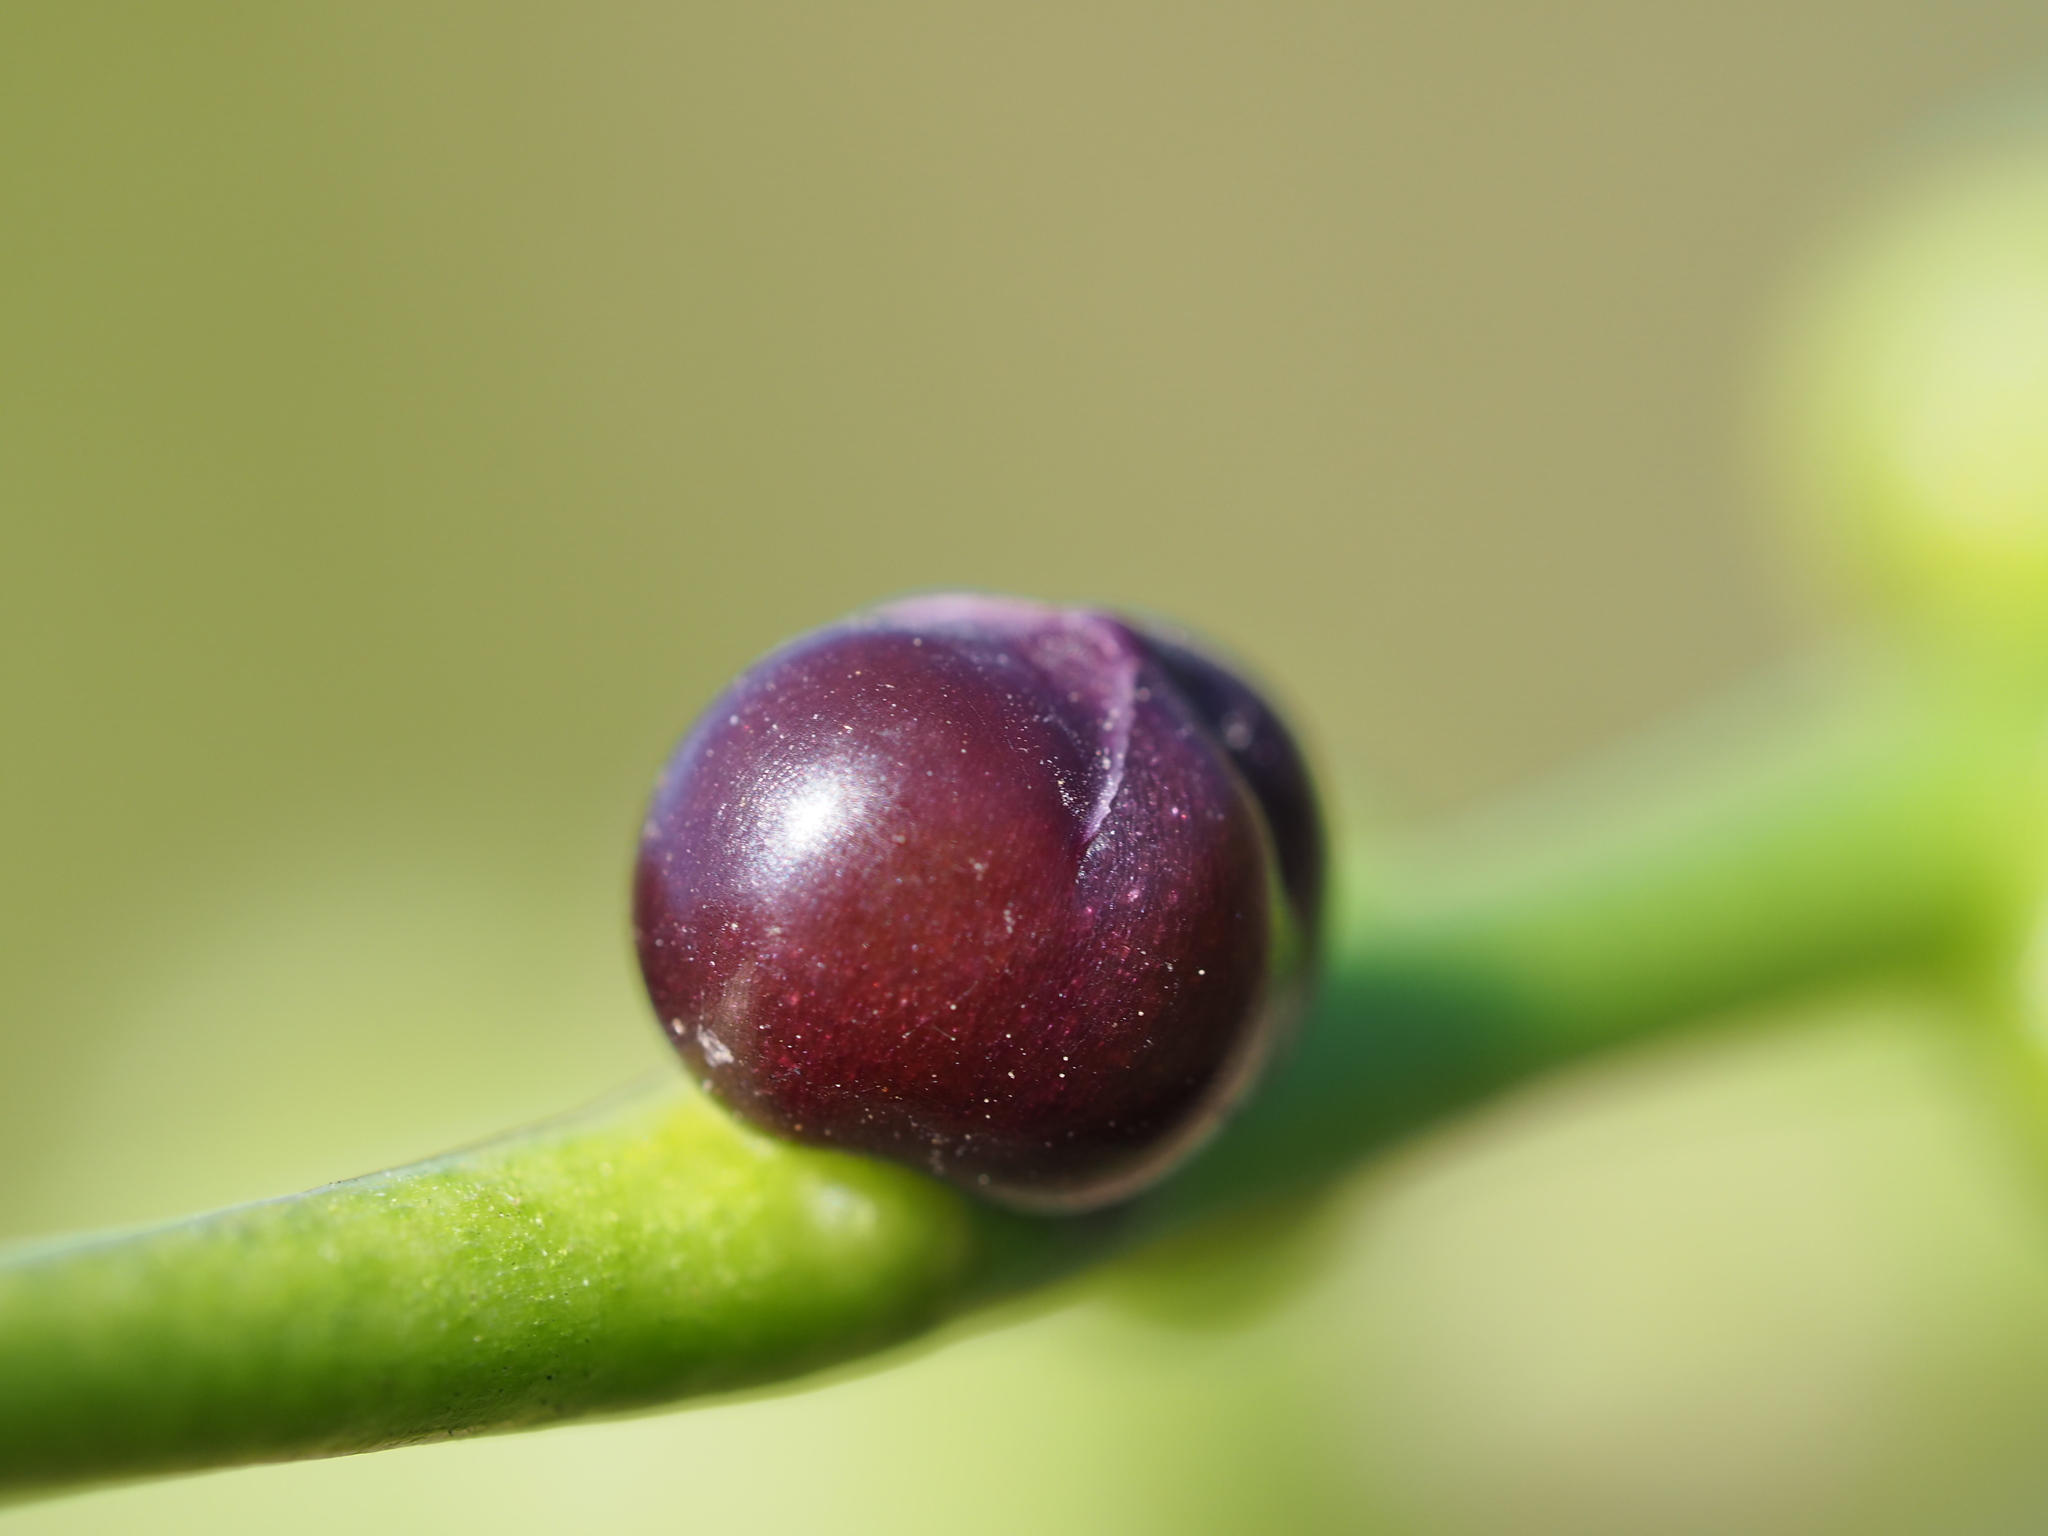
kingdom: Plantae
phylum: Tracheophyta
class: Magnoliopsida
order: Caryophyllales
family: Basellaceae
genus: Basella
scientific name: Basella alba
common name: Indian spinach
